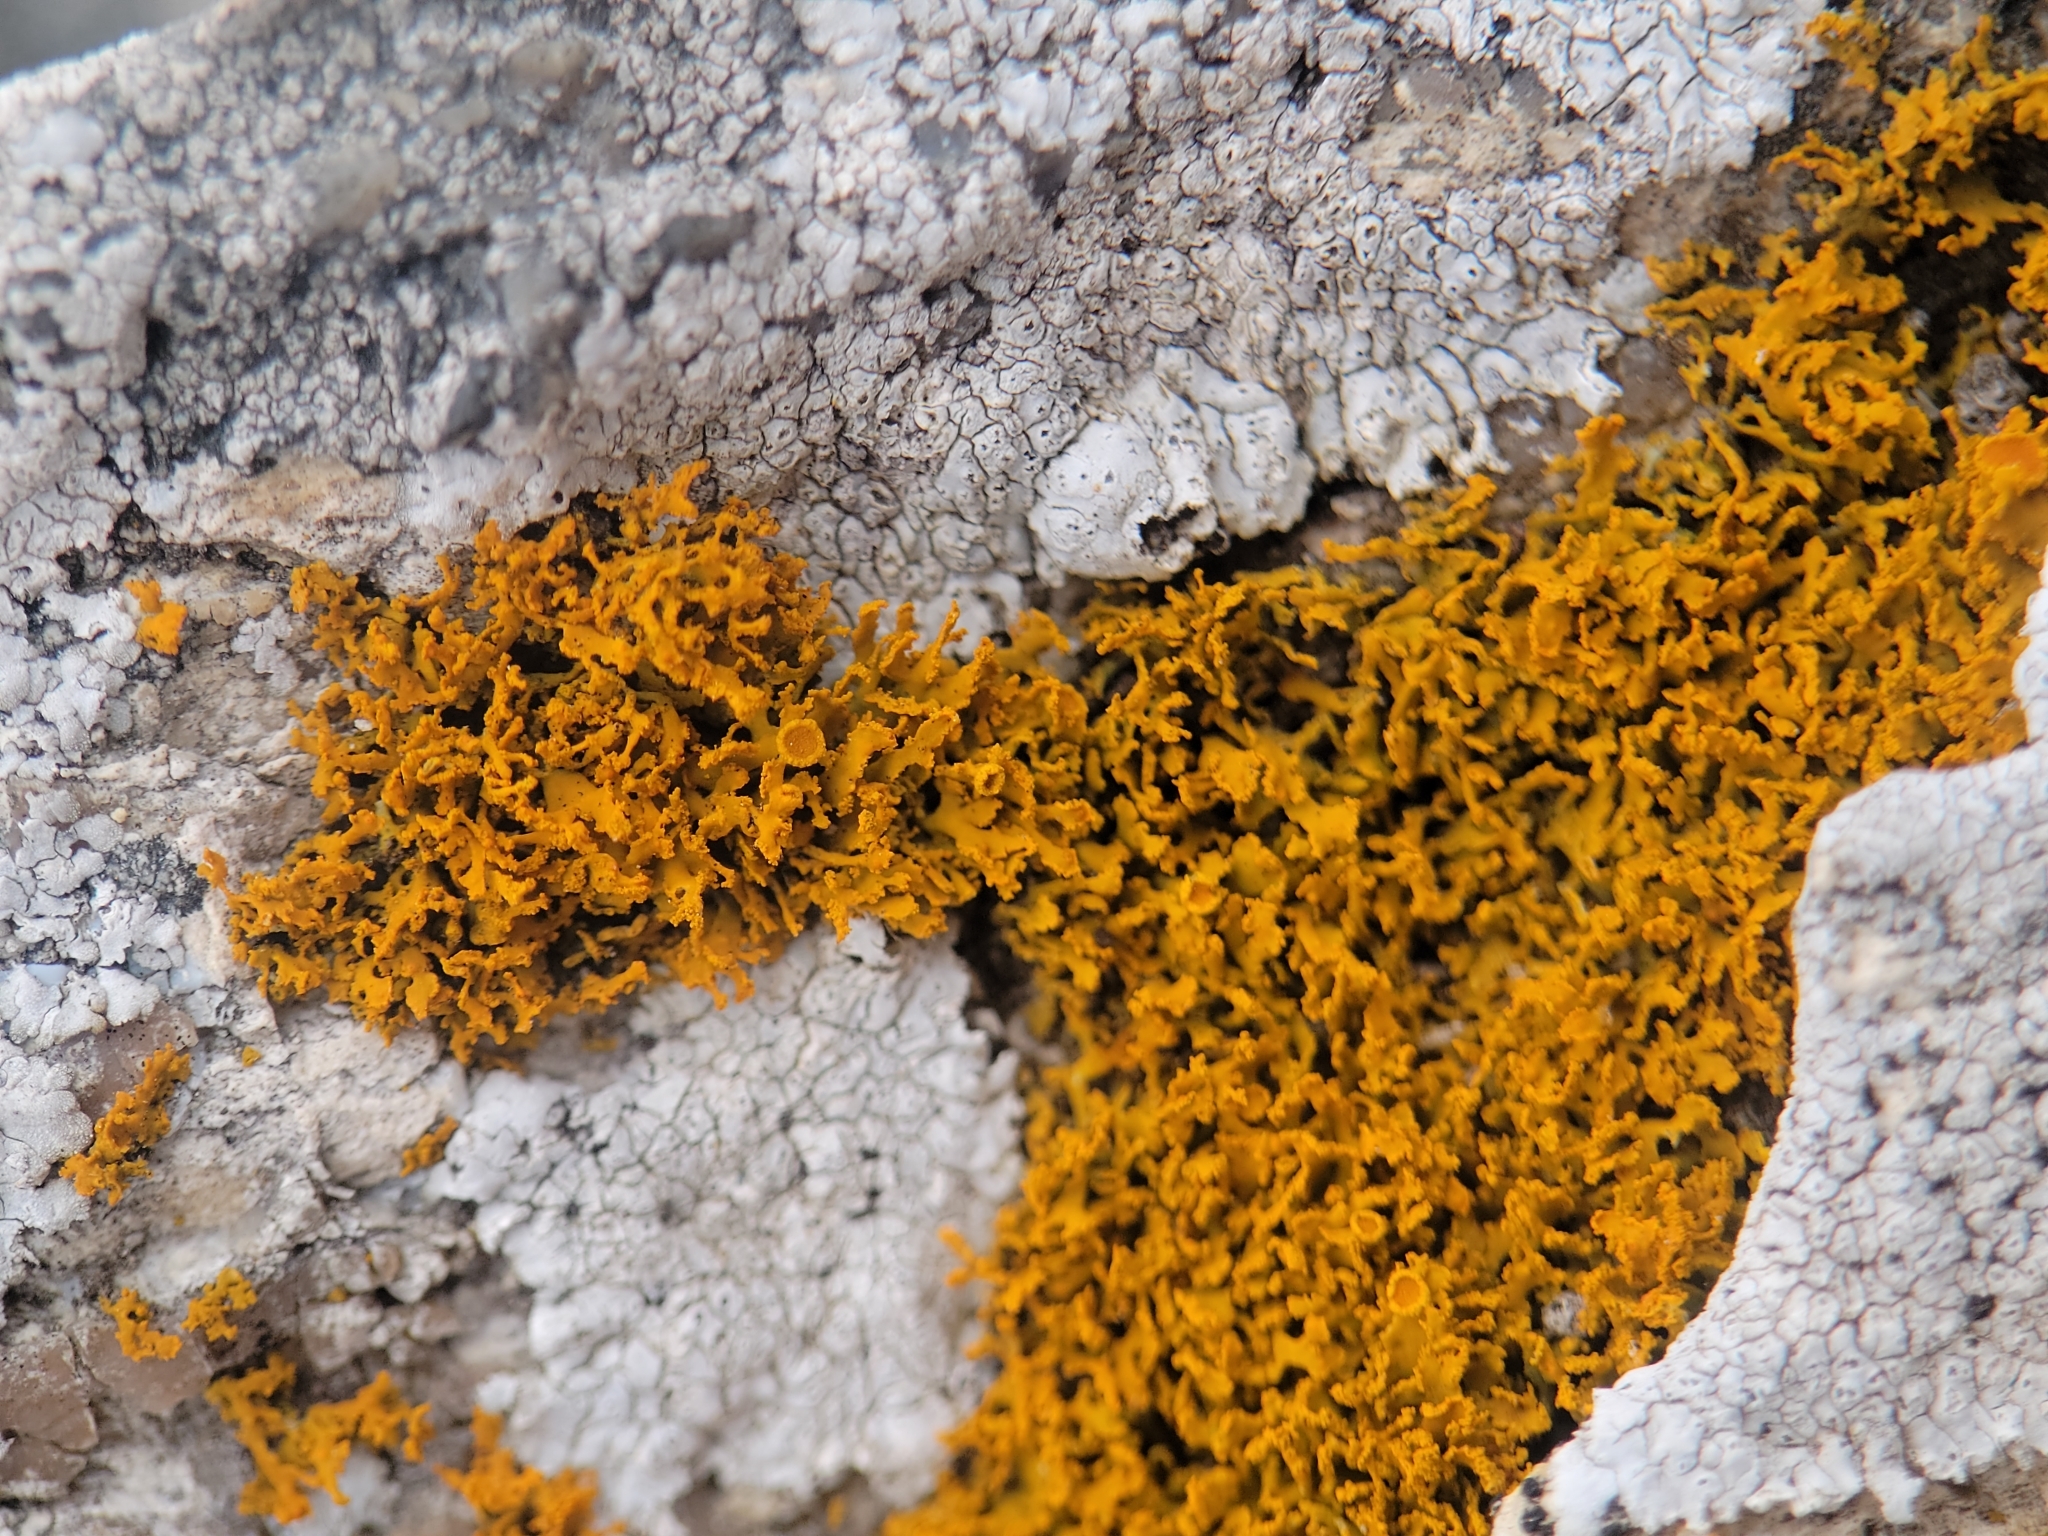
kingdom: Fungi
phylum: Ascomycota
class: Lecanoromycetes
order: Teloschistales
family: Teloschistaceae
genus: Polycauliona
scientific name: Polycauliona candelaria
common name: Shrubby sunburst lichen
